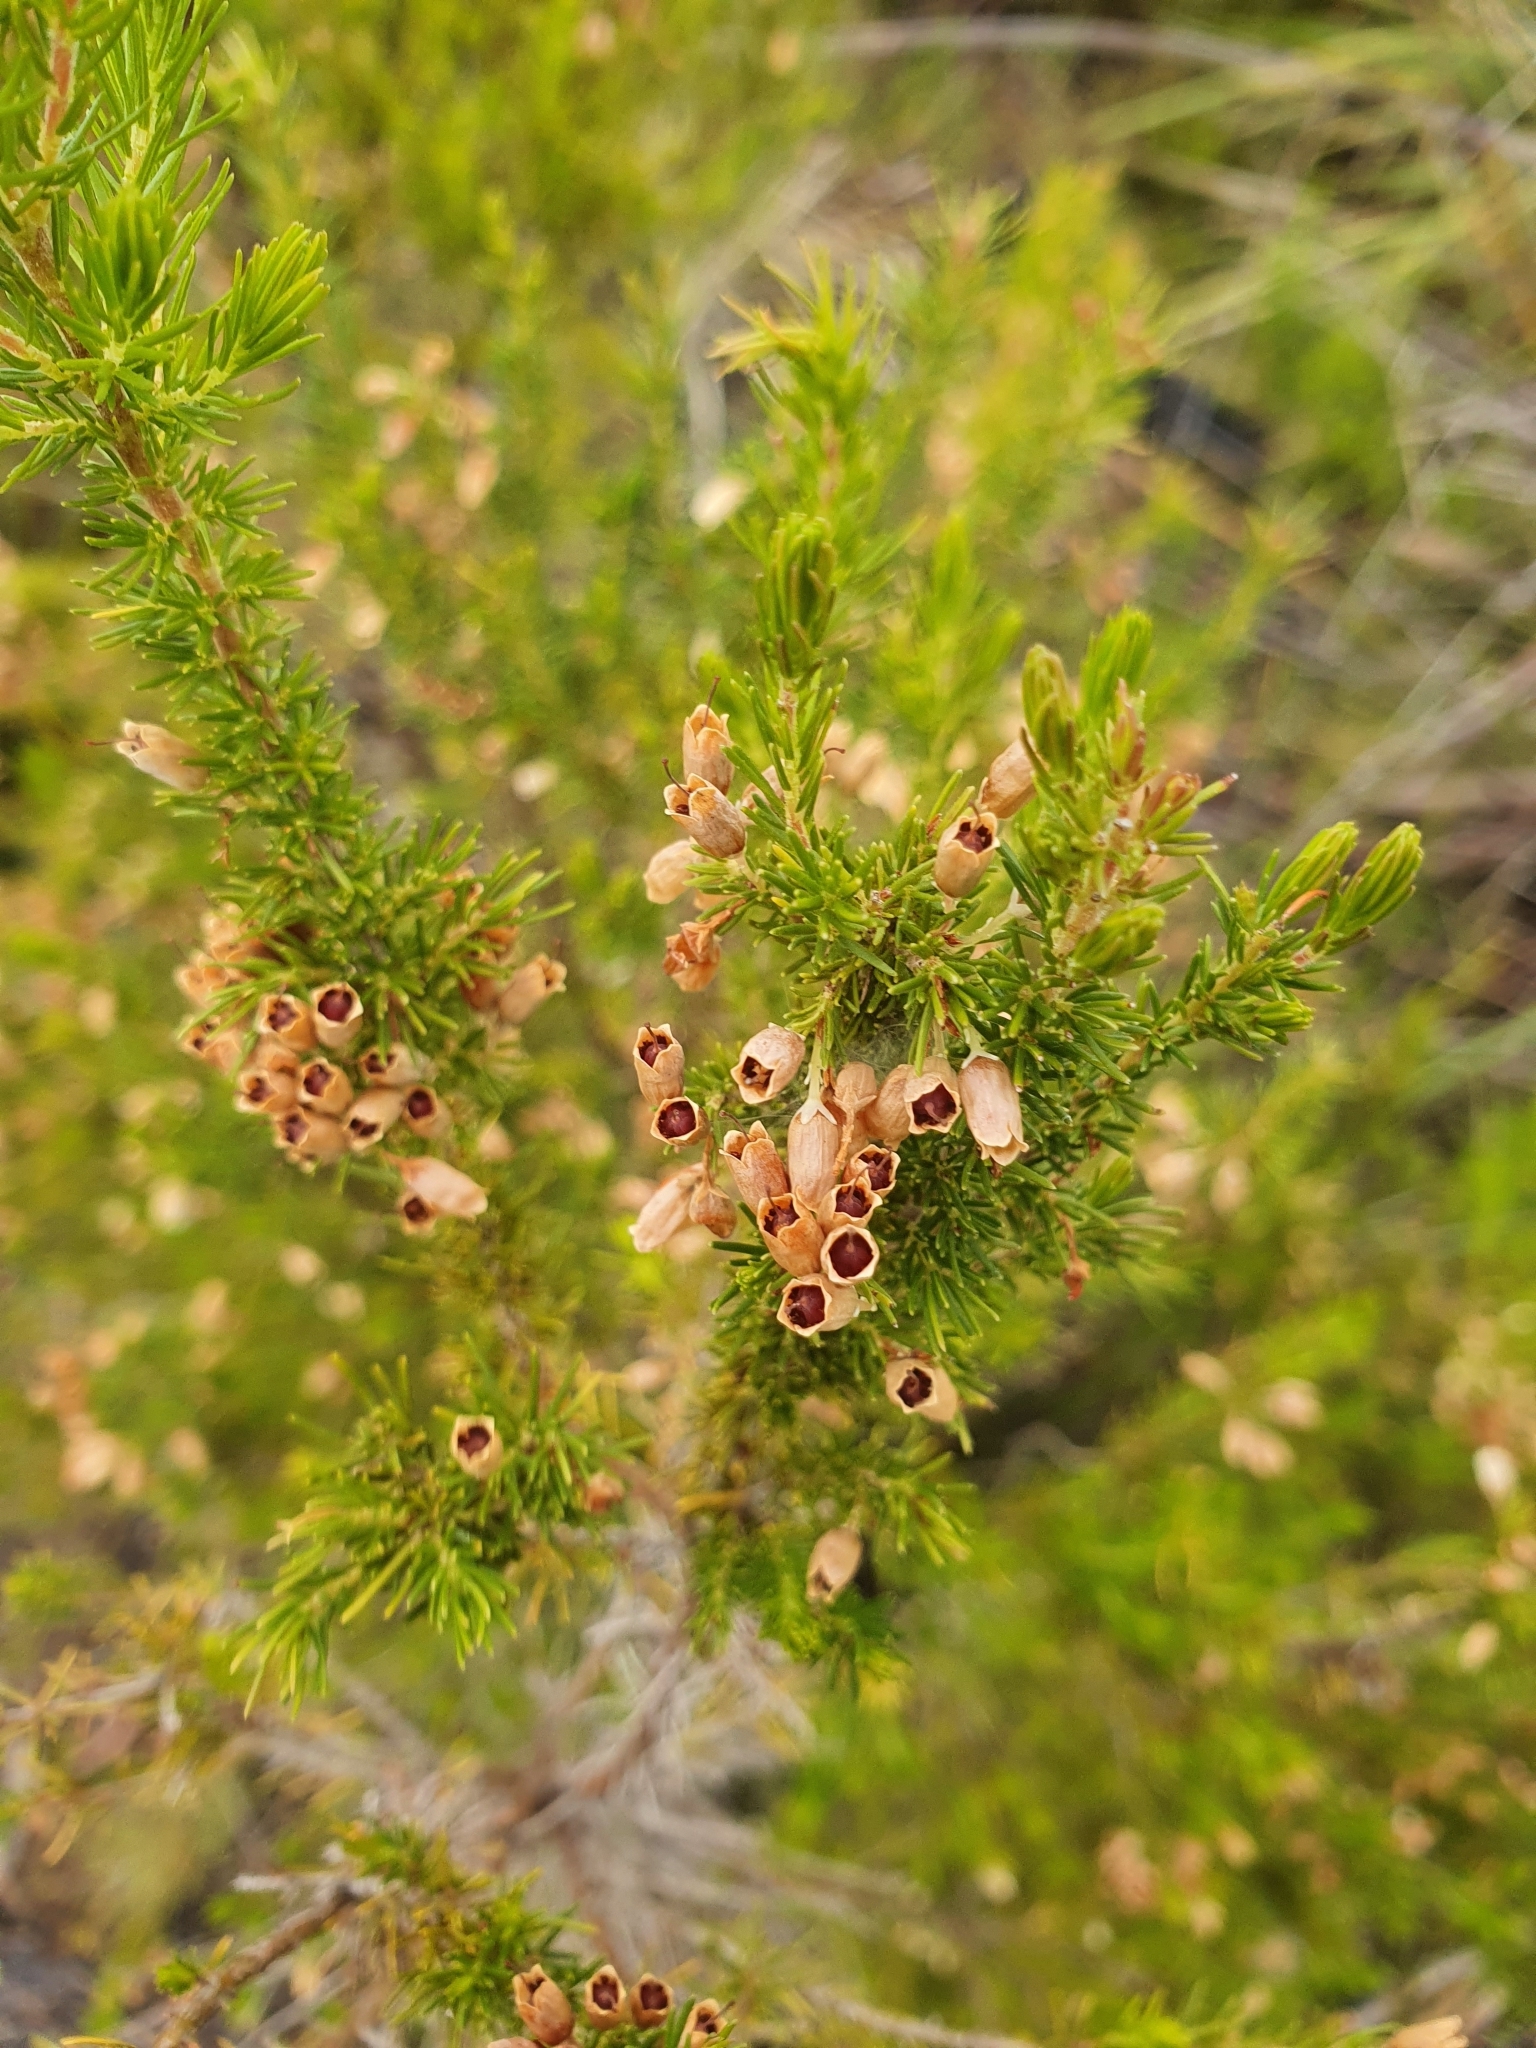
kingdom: Plantae
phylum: Tracheophyta
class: Magnoliopsida
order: Ericales
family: Ericaceae
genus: Erica
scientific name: Erica lusitanica
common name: Spanish heath
